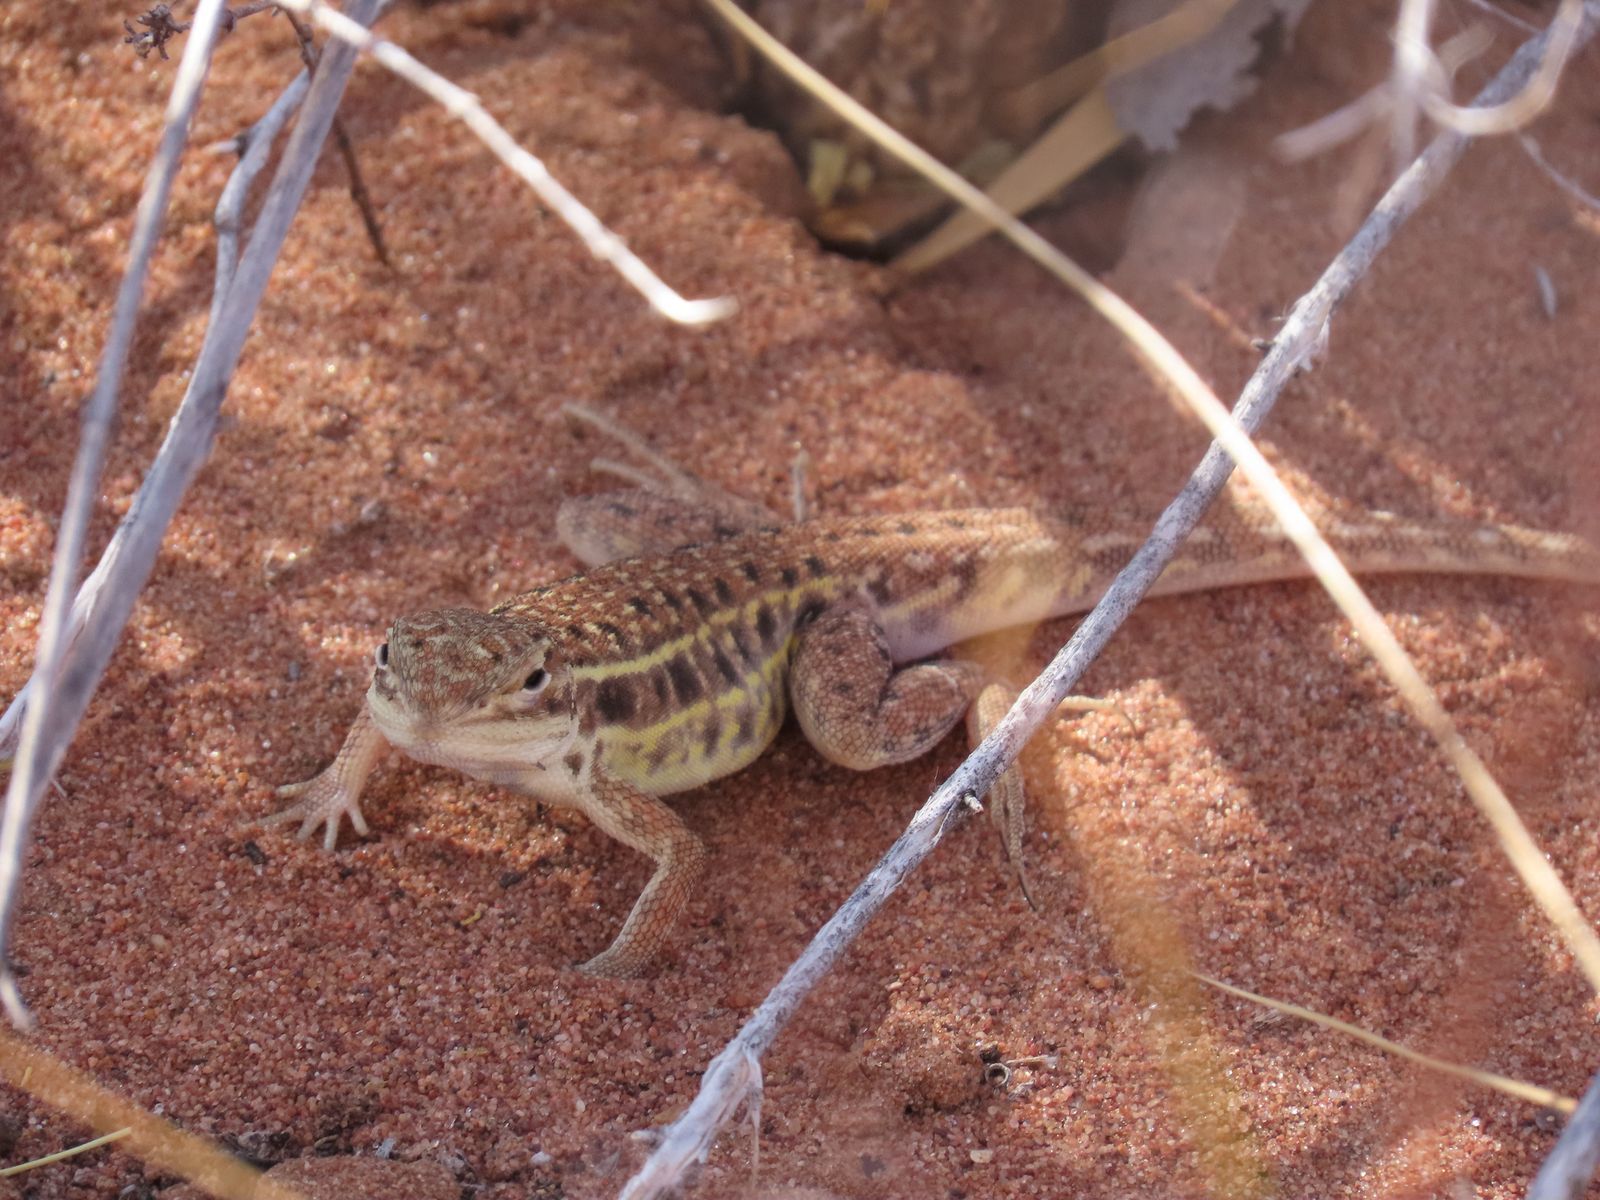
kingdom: Animalia
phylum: Chordata
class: Squamata
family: Agamidae
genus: Ctenophorus
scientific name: Ctenophorus isolepis
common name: Military dragon
